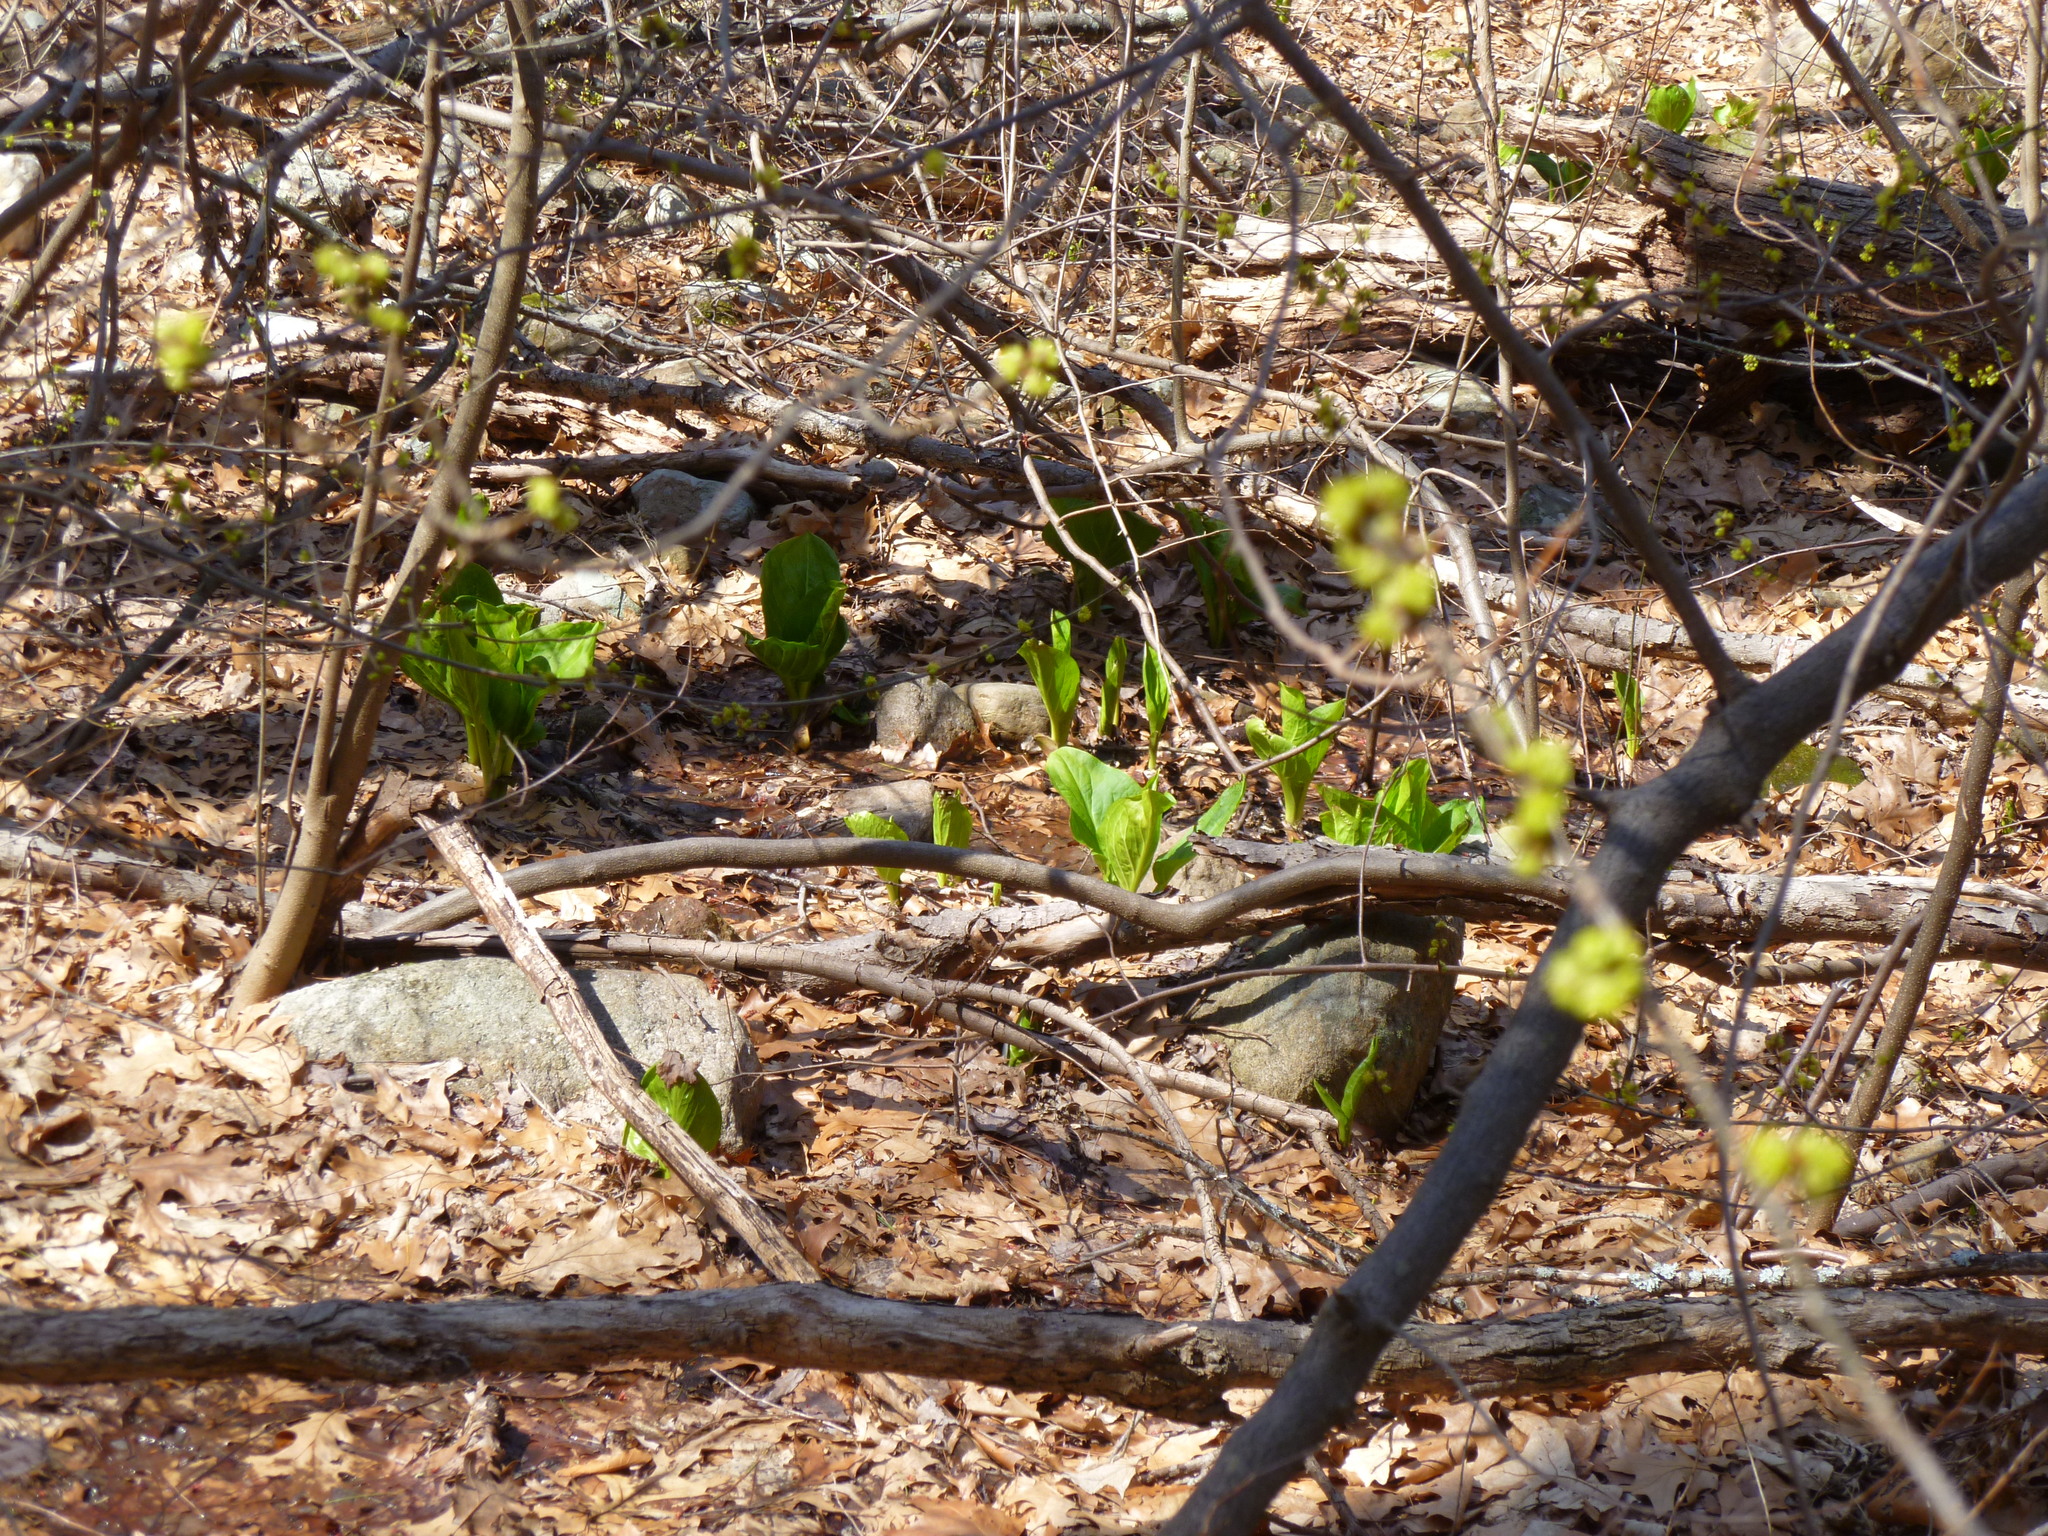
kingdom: Plantae
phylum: Tracheophyta
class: Liliopsida
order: Alismatales
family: Araceae
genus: Symplocarpus
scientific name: Symplocarpus foetidus
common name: Eastern skunk cabbage
